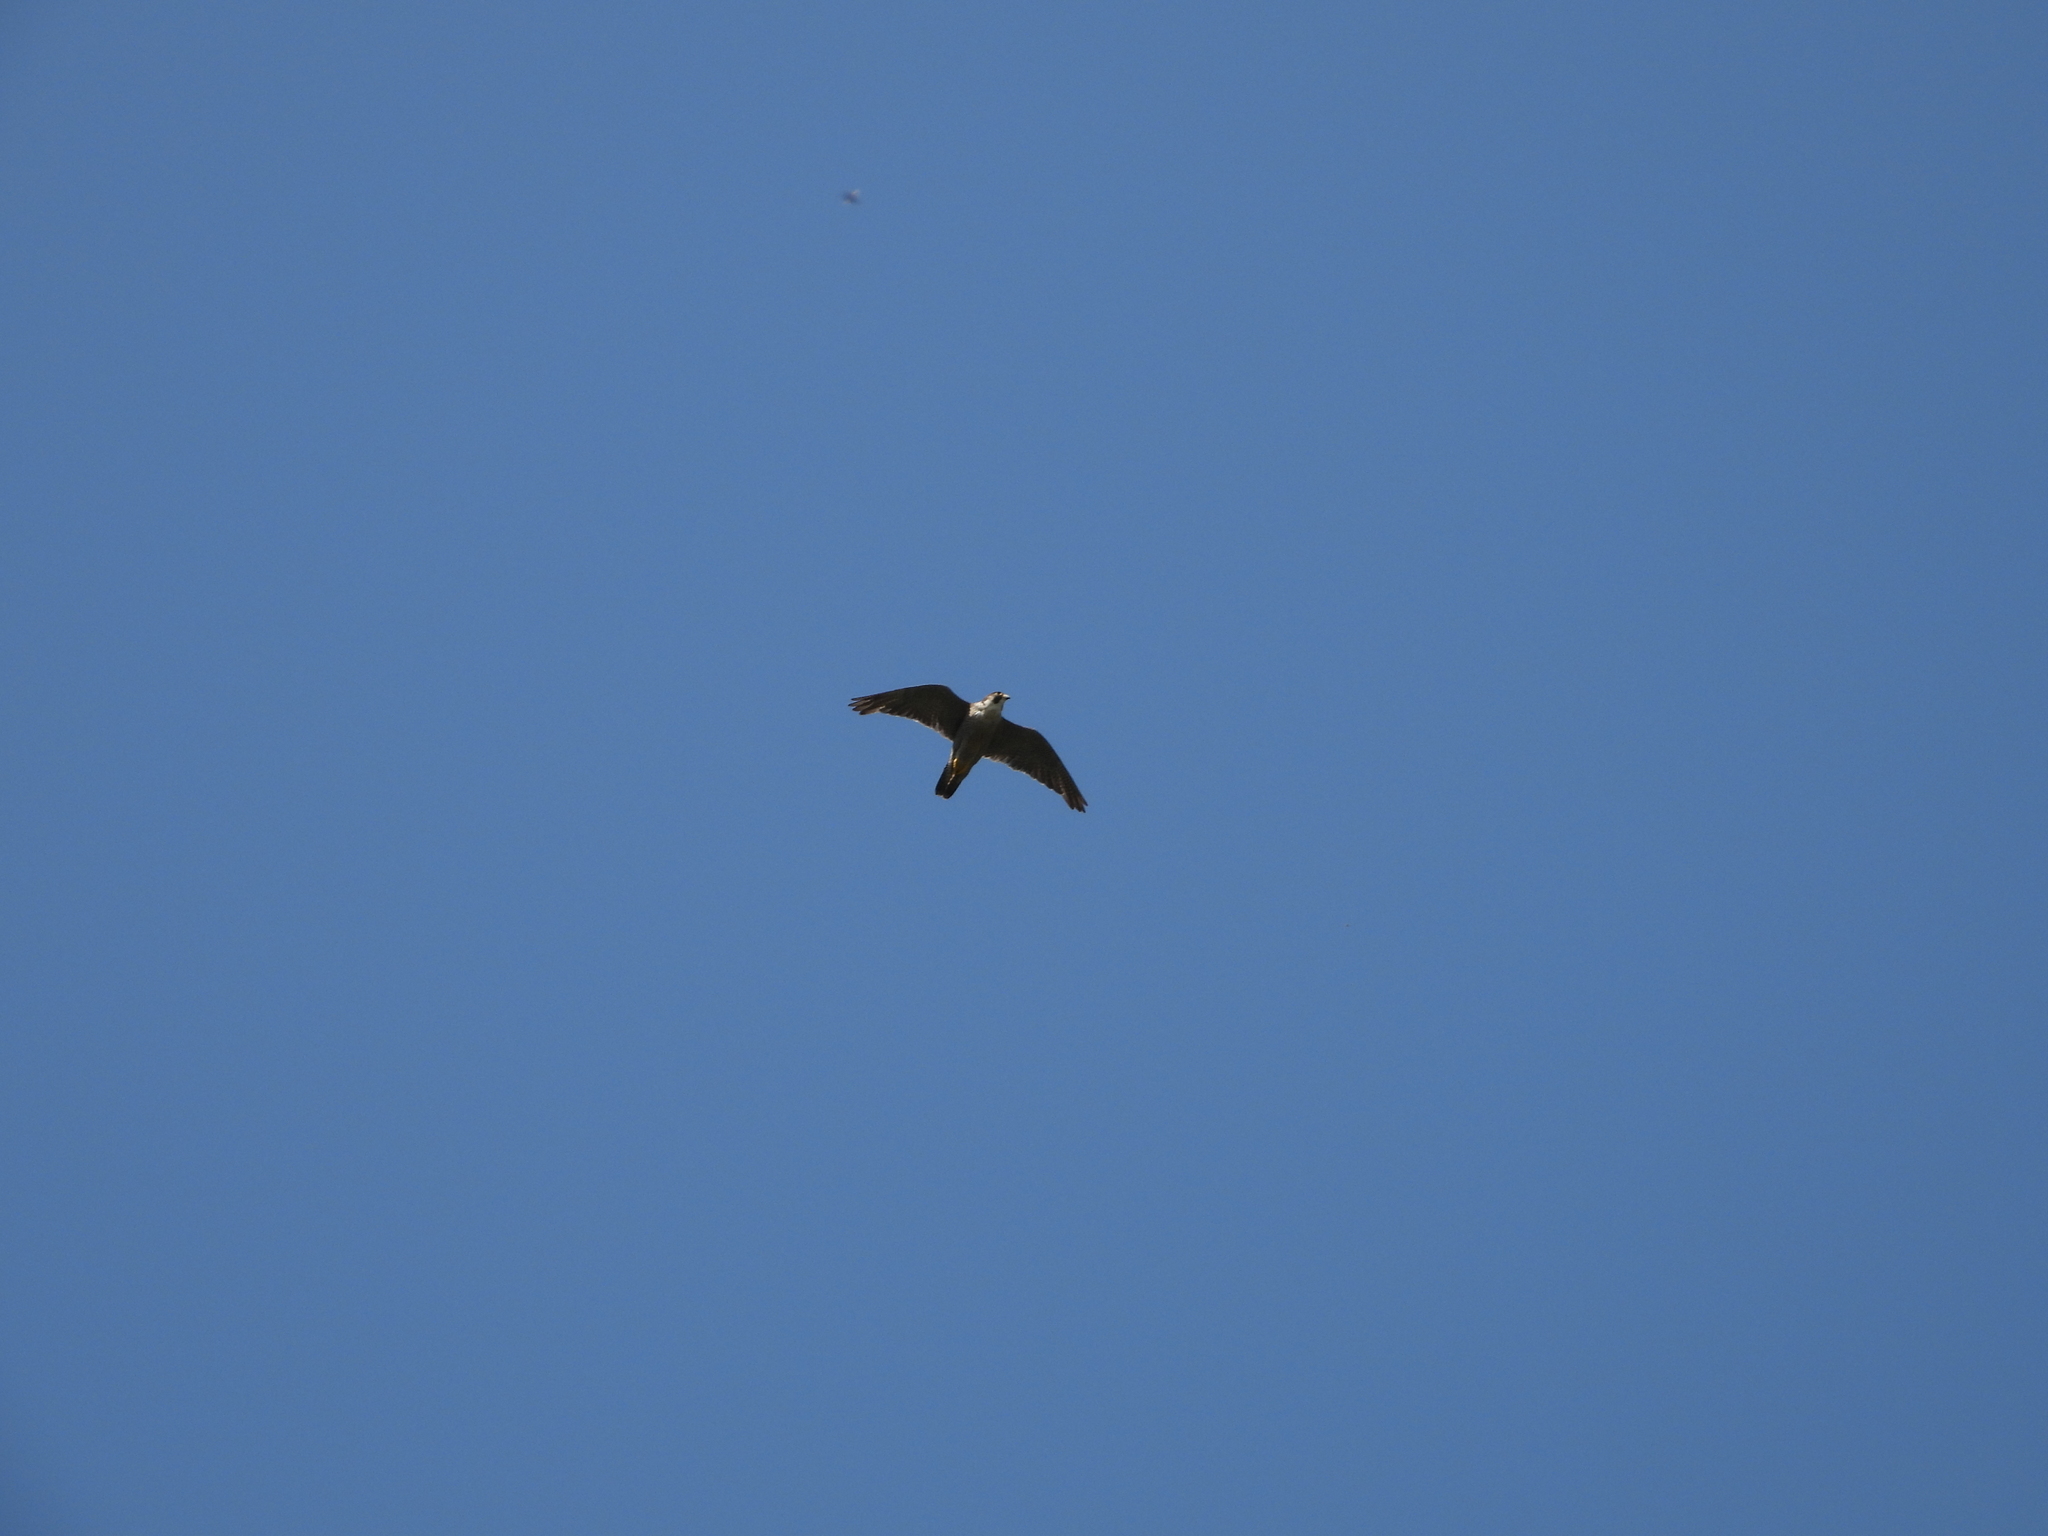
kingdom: Animalia
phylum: Chordata
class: Aves
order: Falconiformes
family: Falconidae
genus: Falco
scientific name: Falco peregrinus
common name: Peregrine falcon
